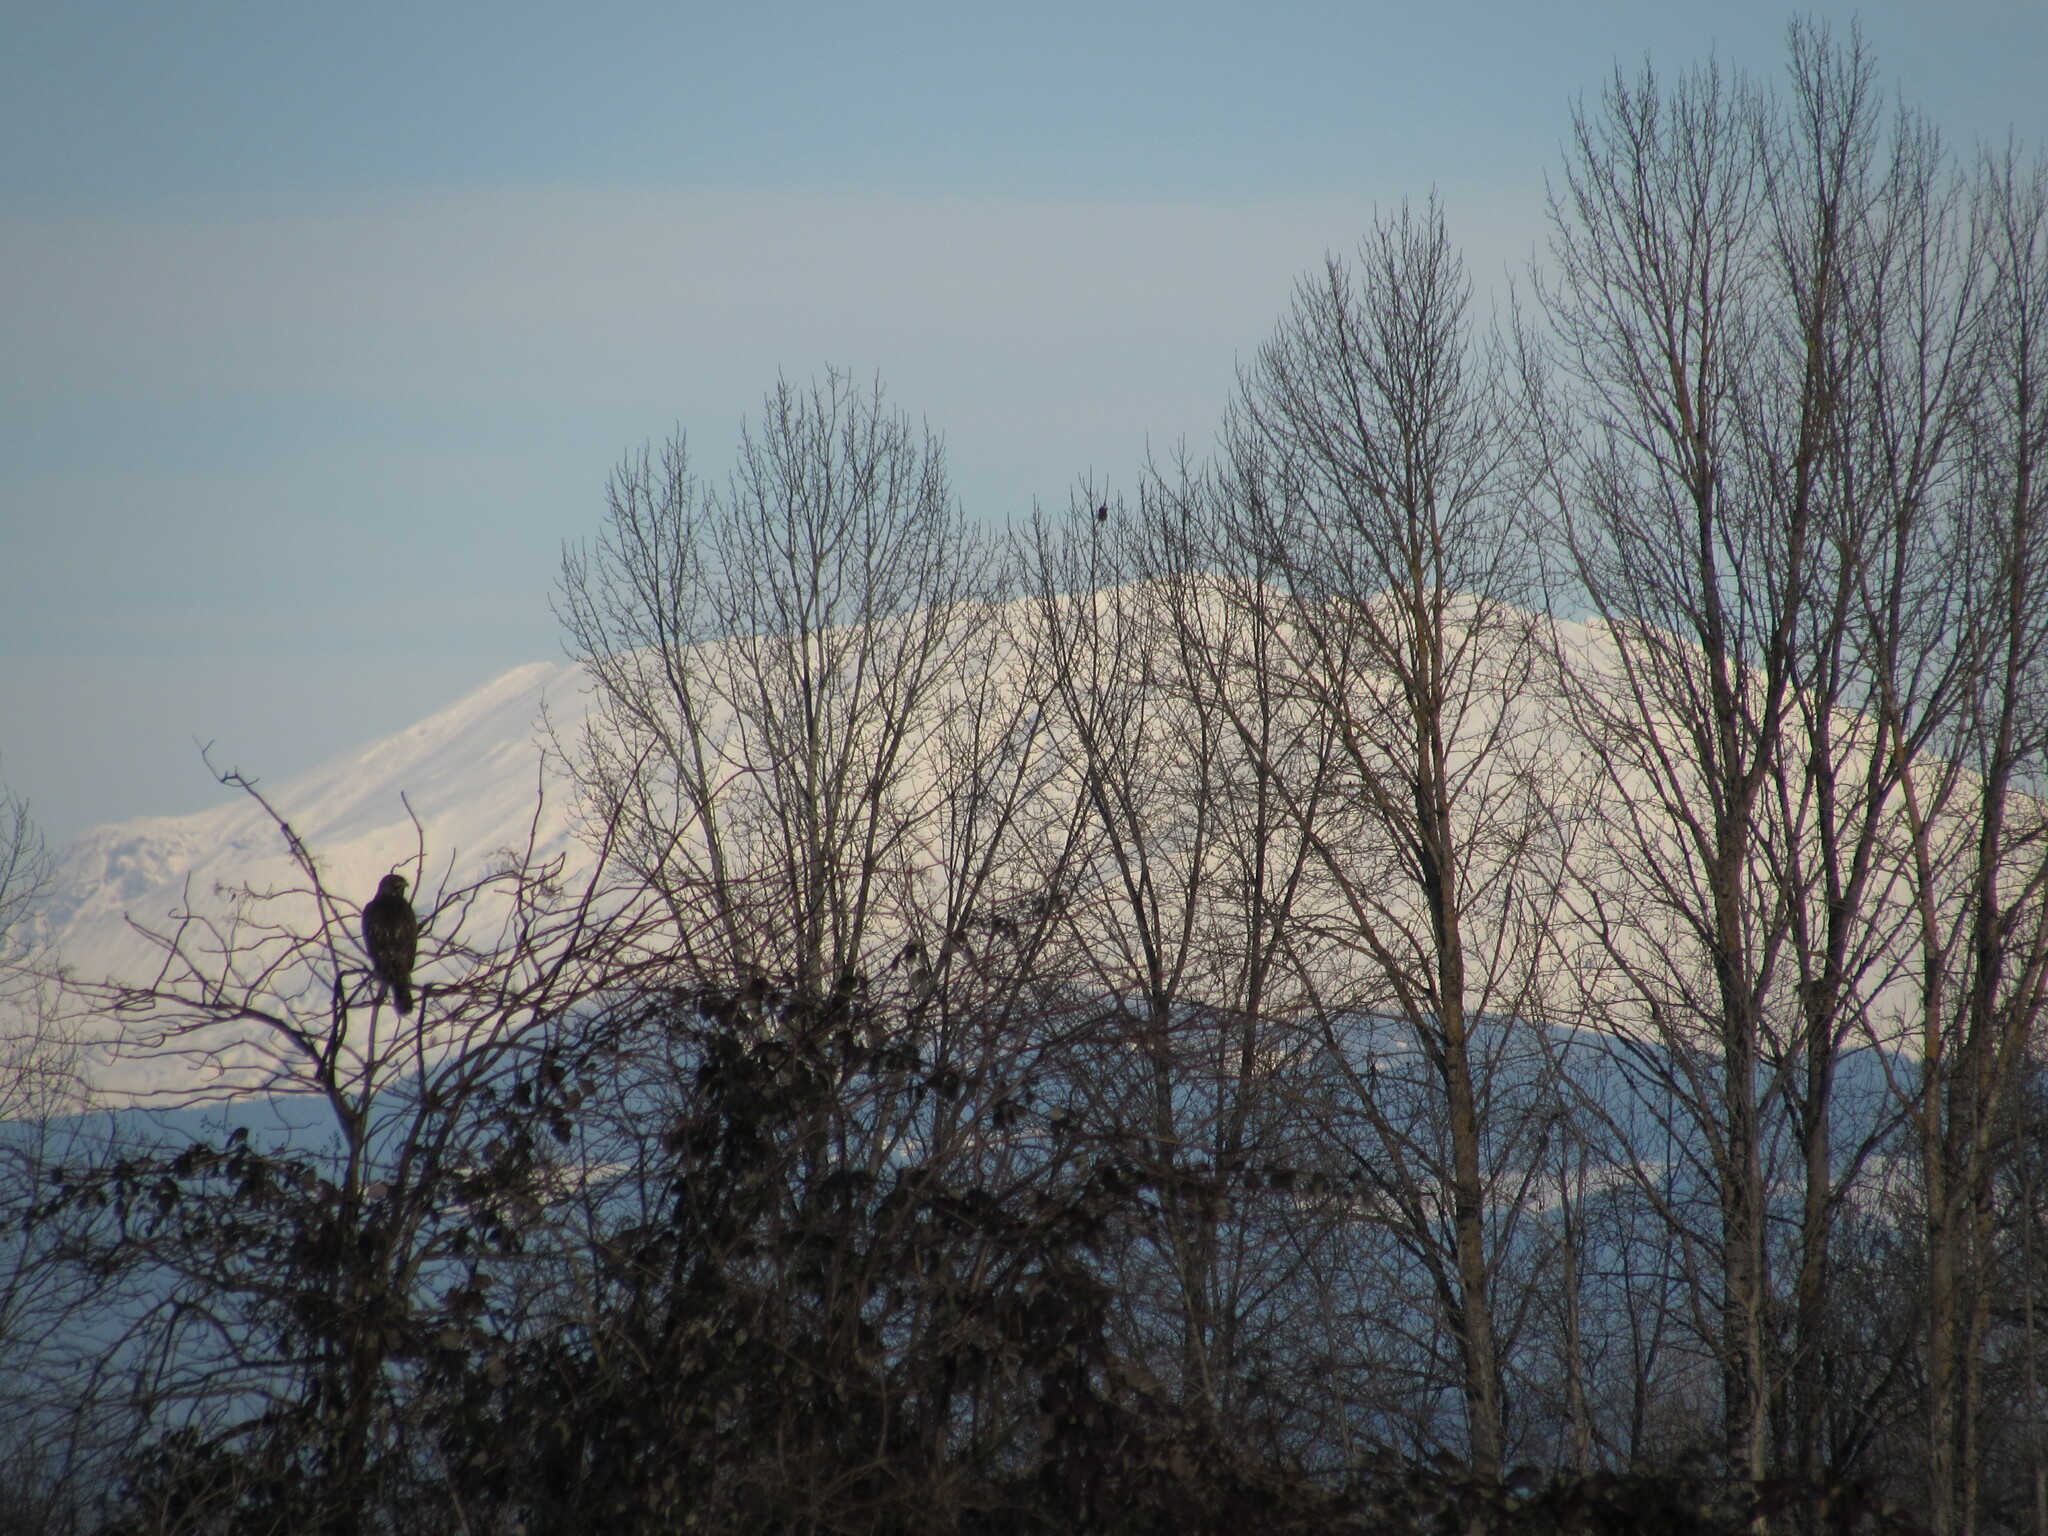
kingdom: Animalia
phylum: Chordata
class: Aves
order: Accipitriformes
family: Accipitridae
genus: Buteo
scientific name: Buteo jamaicensis
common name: Red-tailed hawk
